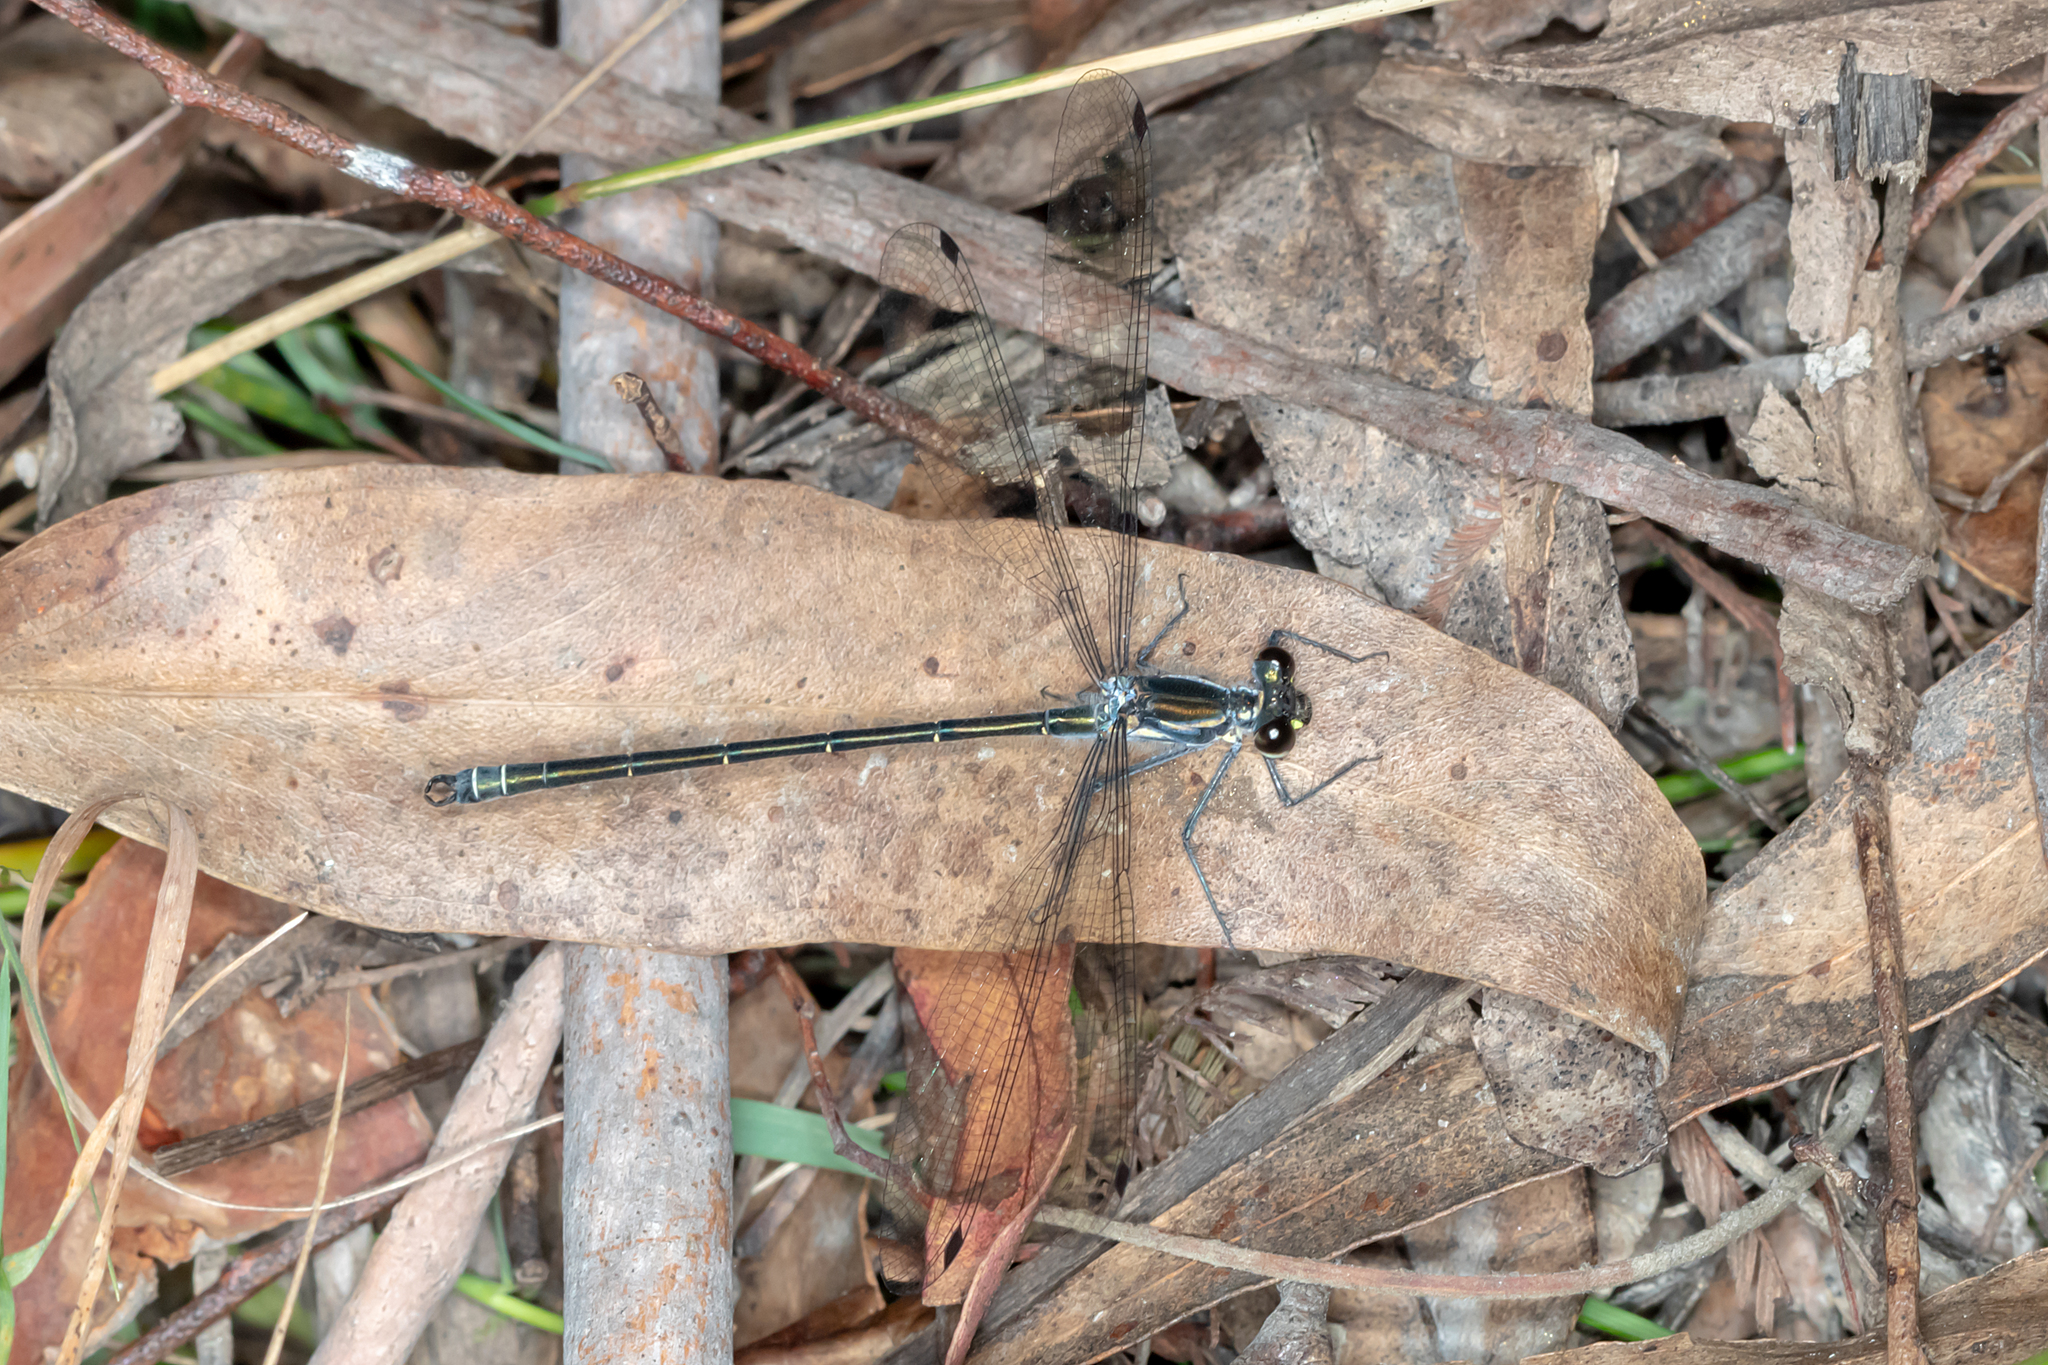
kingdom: Animalia
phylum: Arthropoda
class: Insecta
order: Odonata
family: Argiolestidae
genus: Austroargiolestes
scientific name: Austroargiolestes icteromelas
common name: Common flatwing
